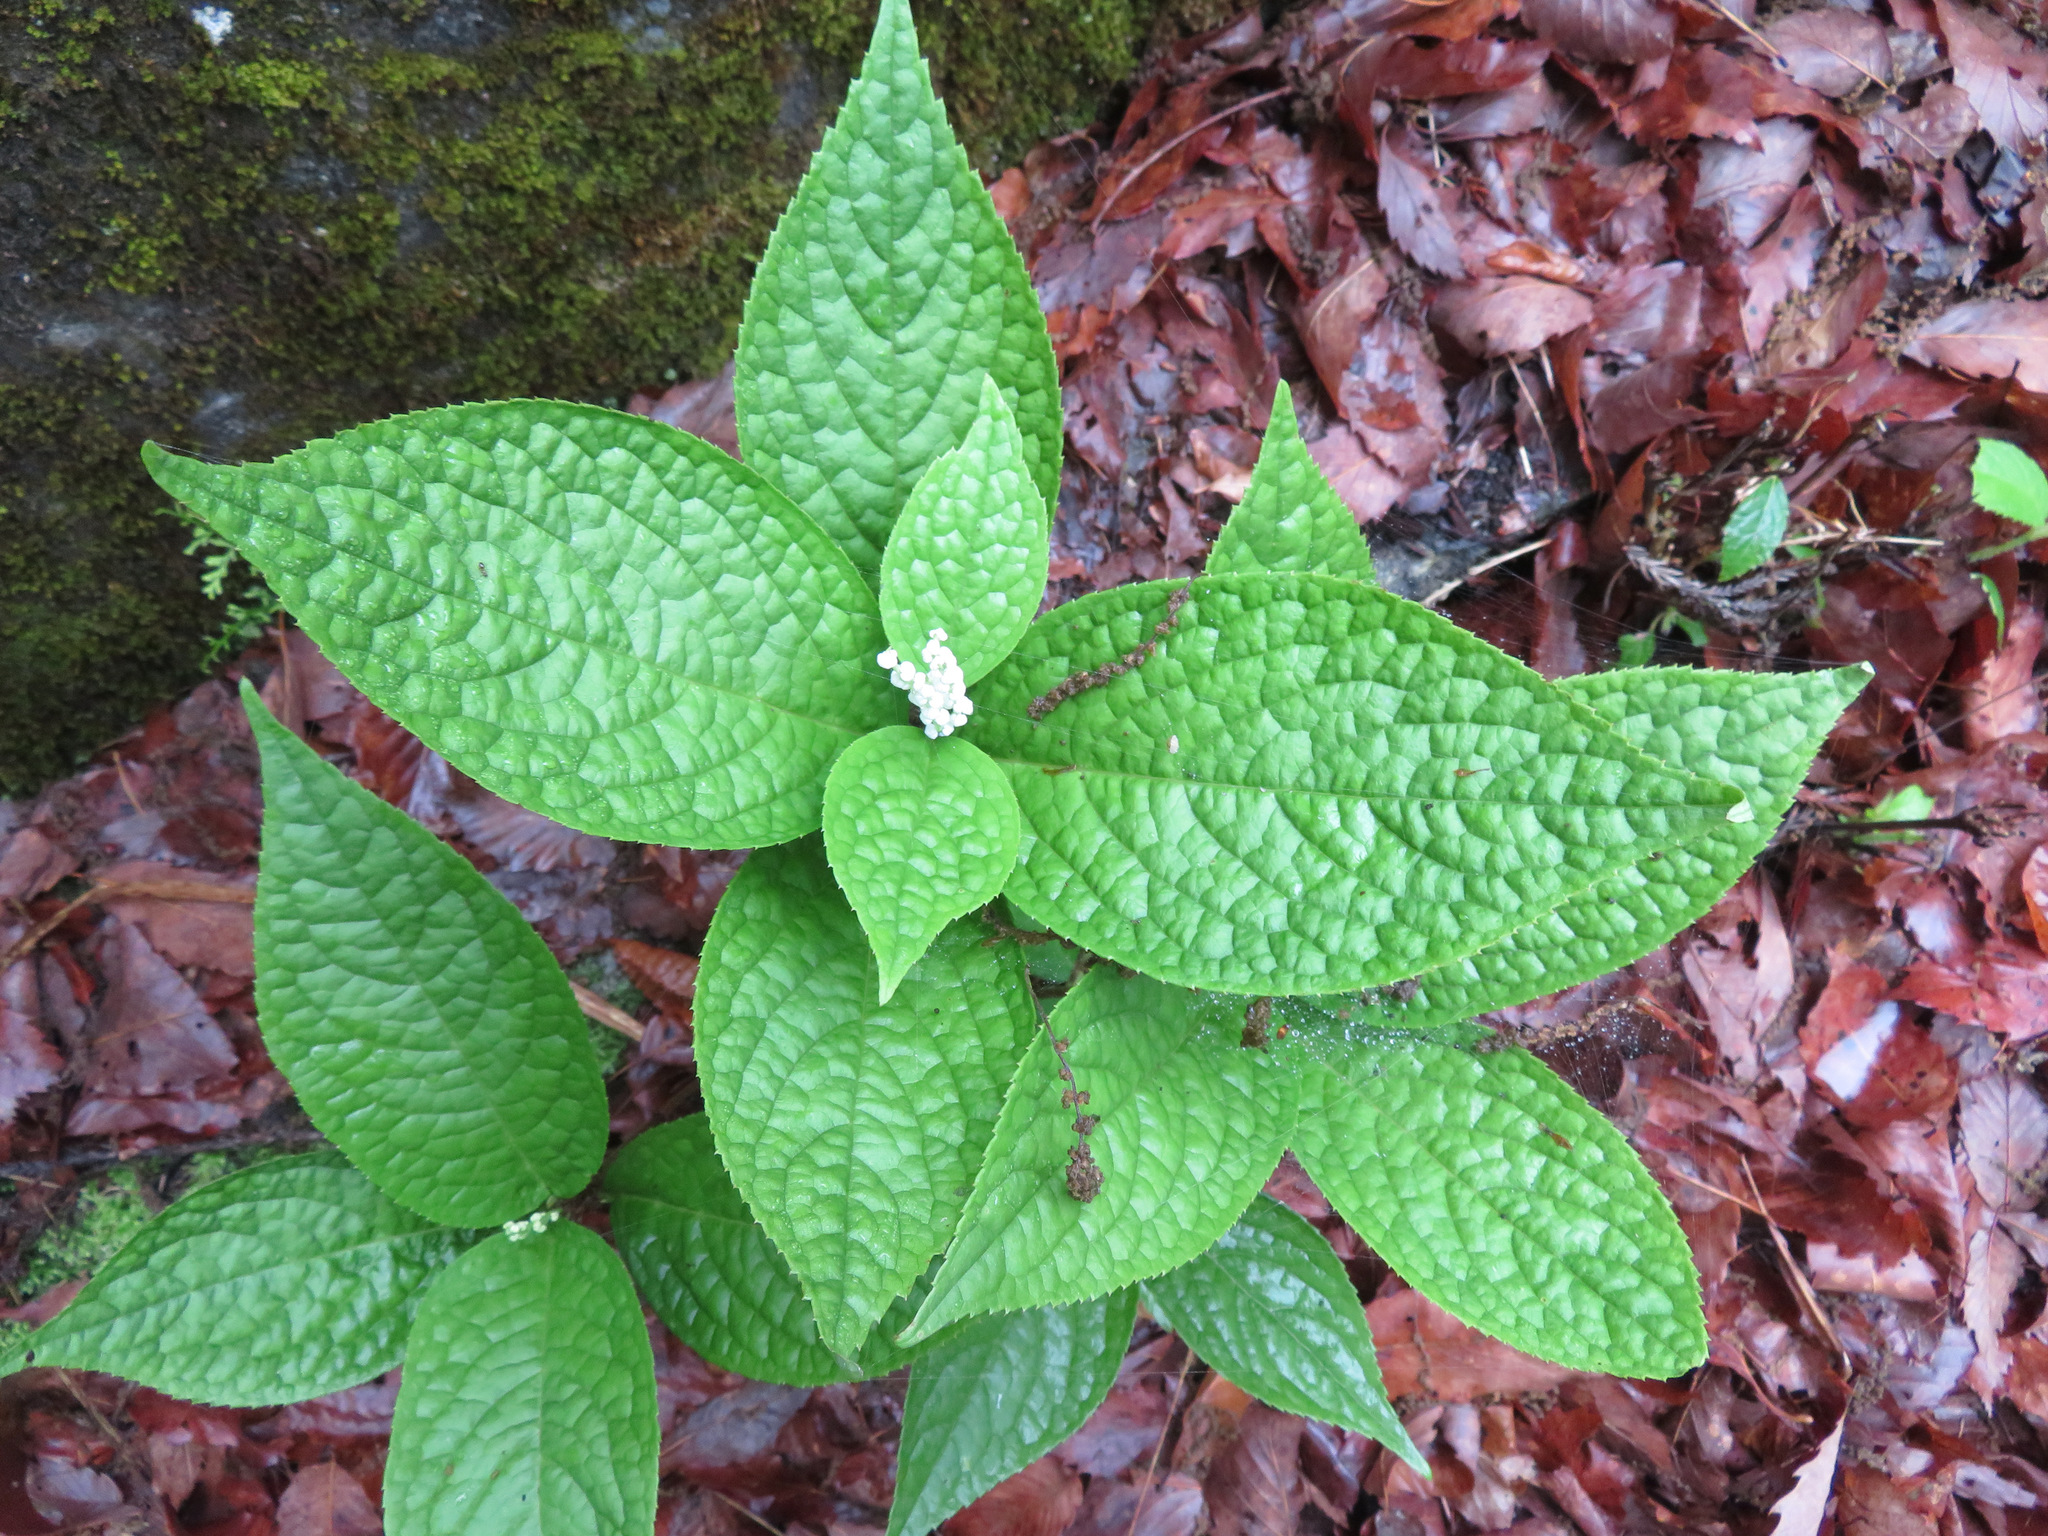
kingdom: Plantae
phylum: Tracheophyta
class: Magnoliopsida
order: Chloranthales
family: Chloranthaceae
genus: Chloranthus
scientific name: Chloranthus serratus
